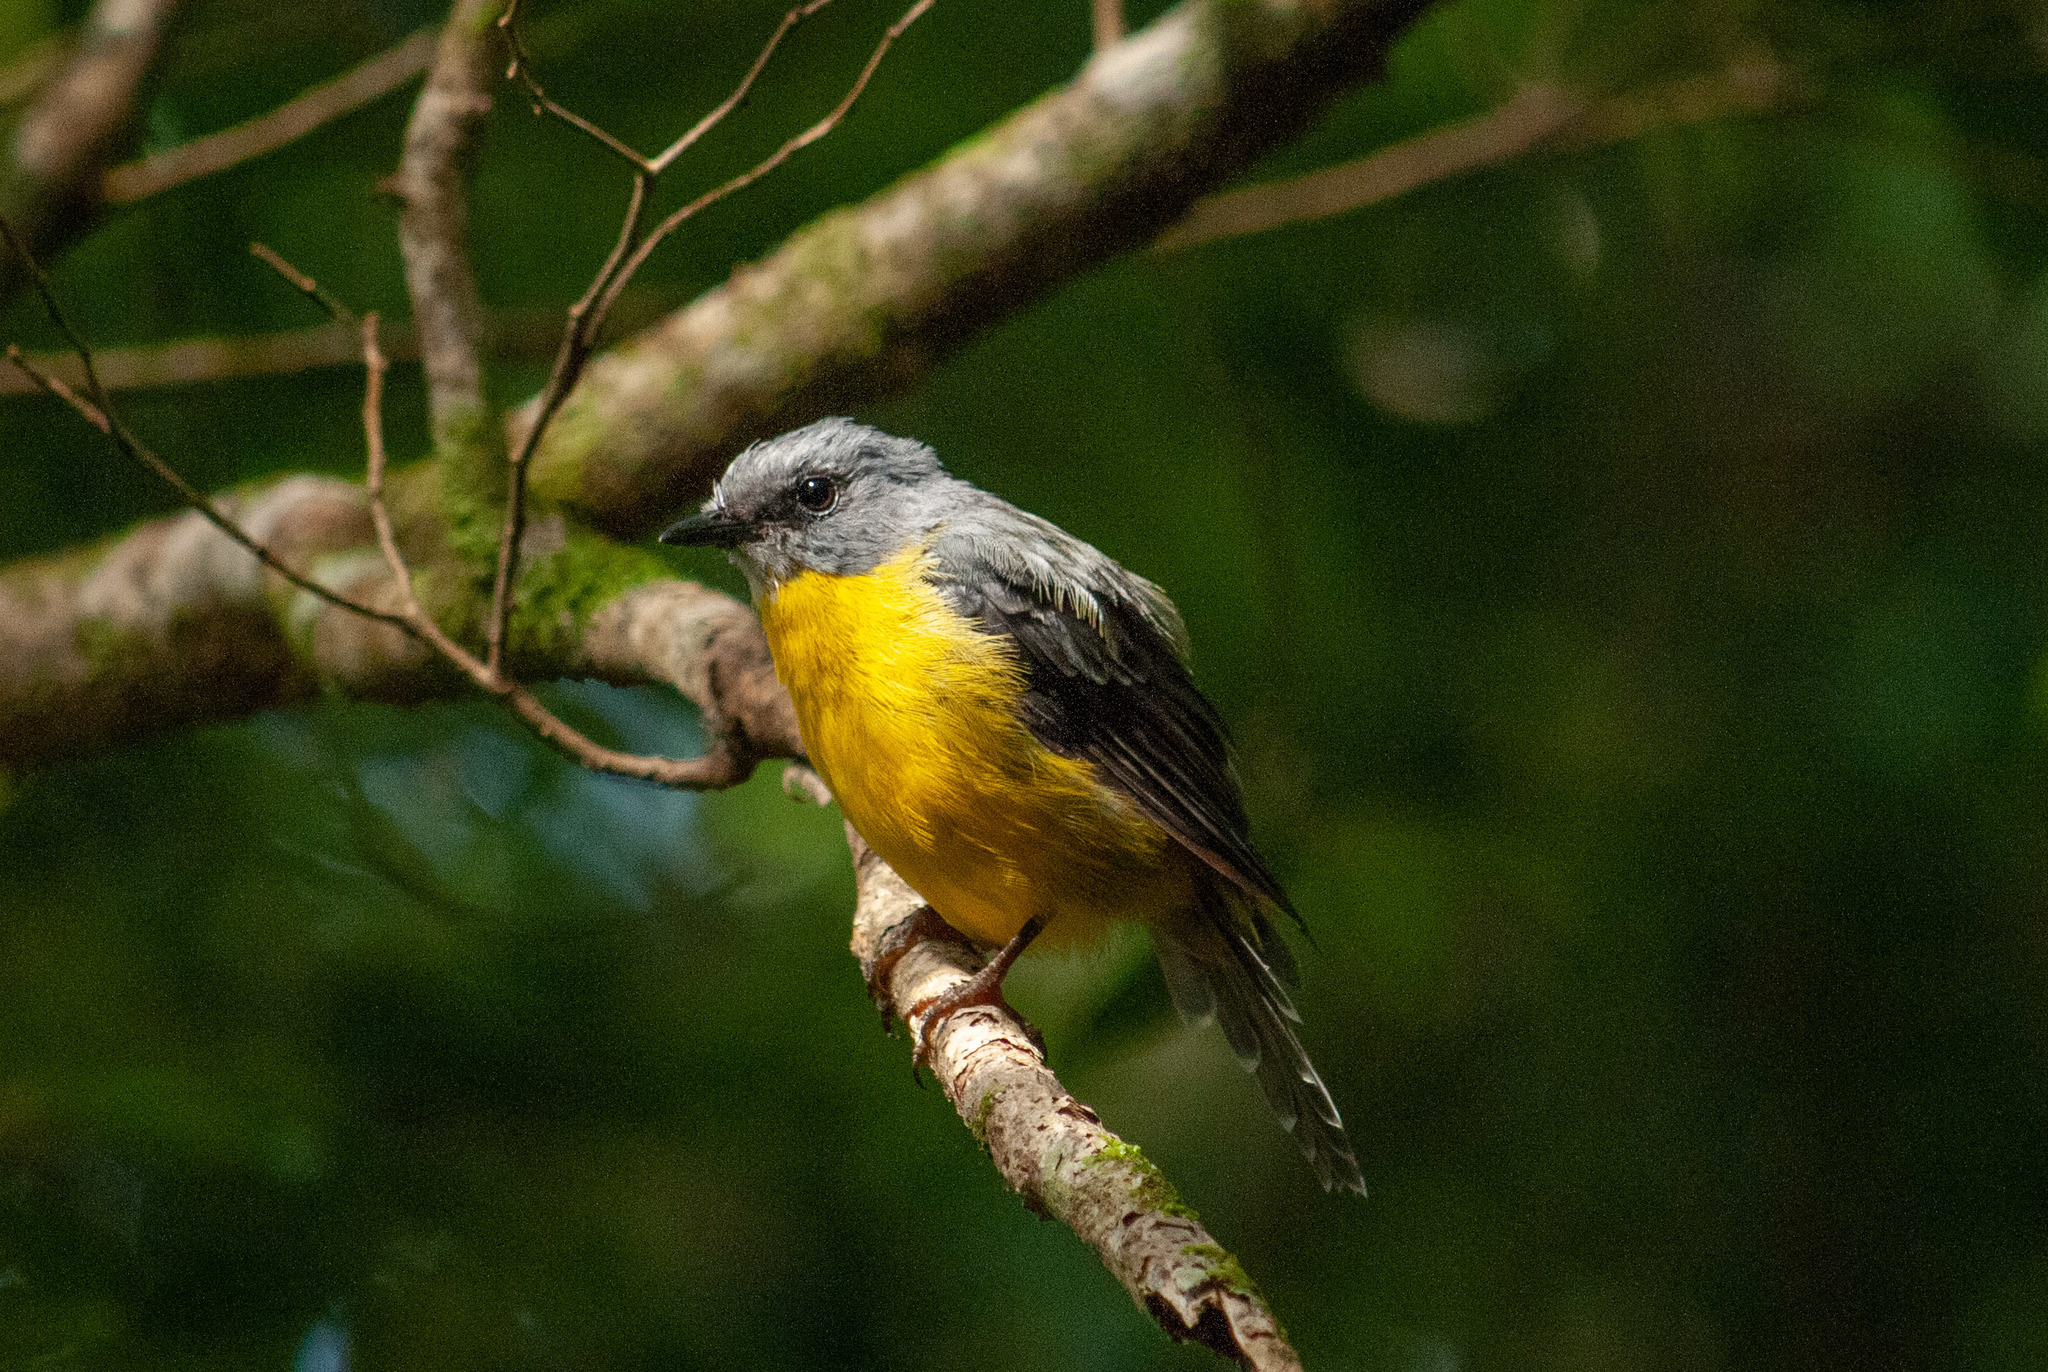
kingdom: Animalia
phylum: Chordata
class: Aves
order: Passeriformes
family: Petroicidae
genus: Eopsaltria
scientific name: Eopsaltria australis
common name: Eastern yellow robin
